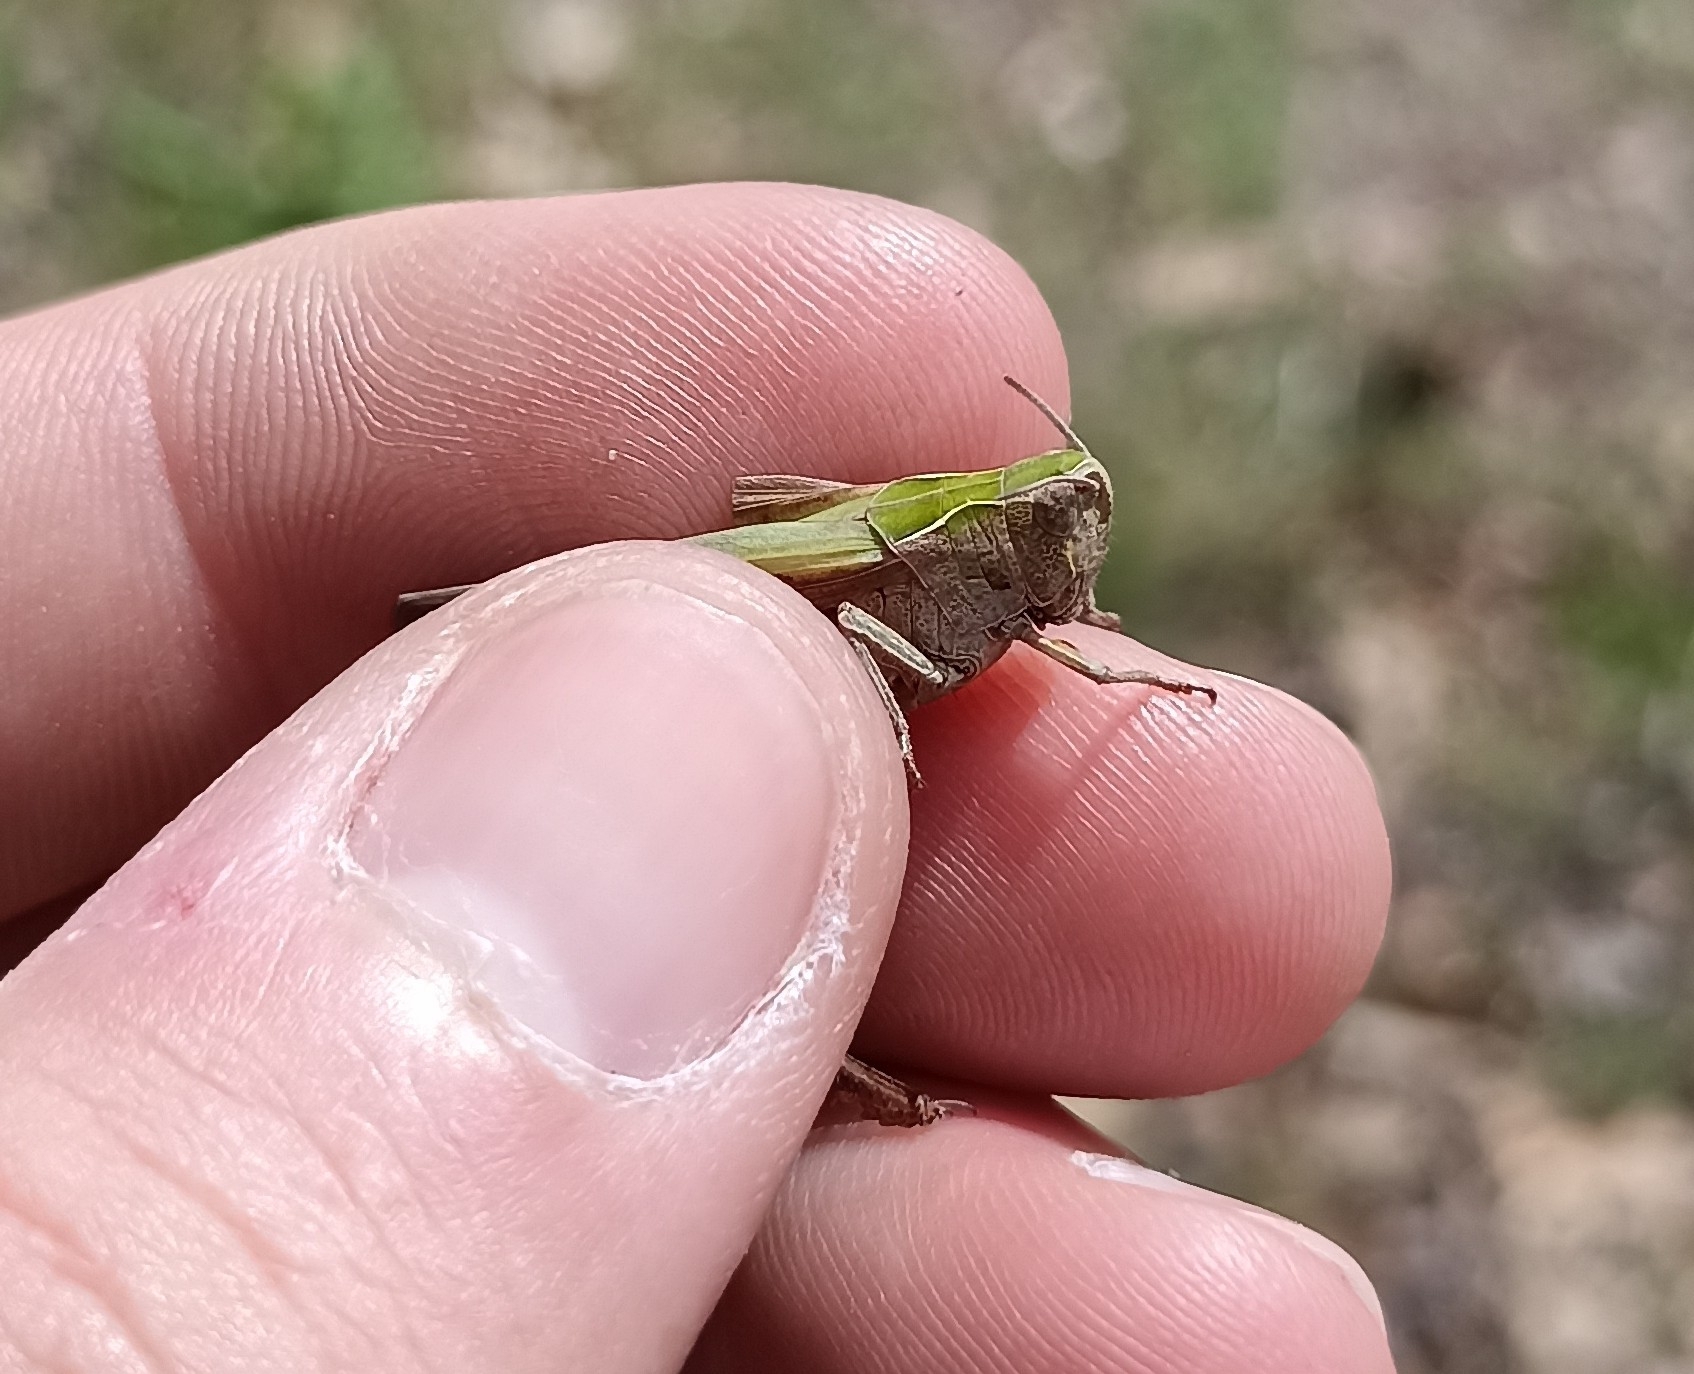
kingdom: Animalia
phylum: Arthropoda
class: Insecta
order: Orthoptera
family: Acrididae
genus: Omocestus
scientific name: Omocestus rufipes
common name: Woodland grasshopper
